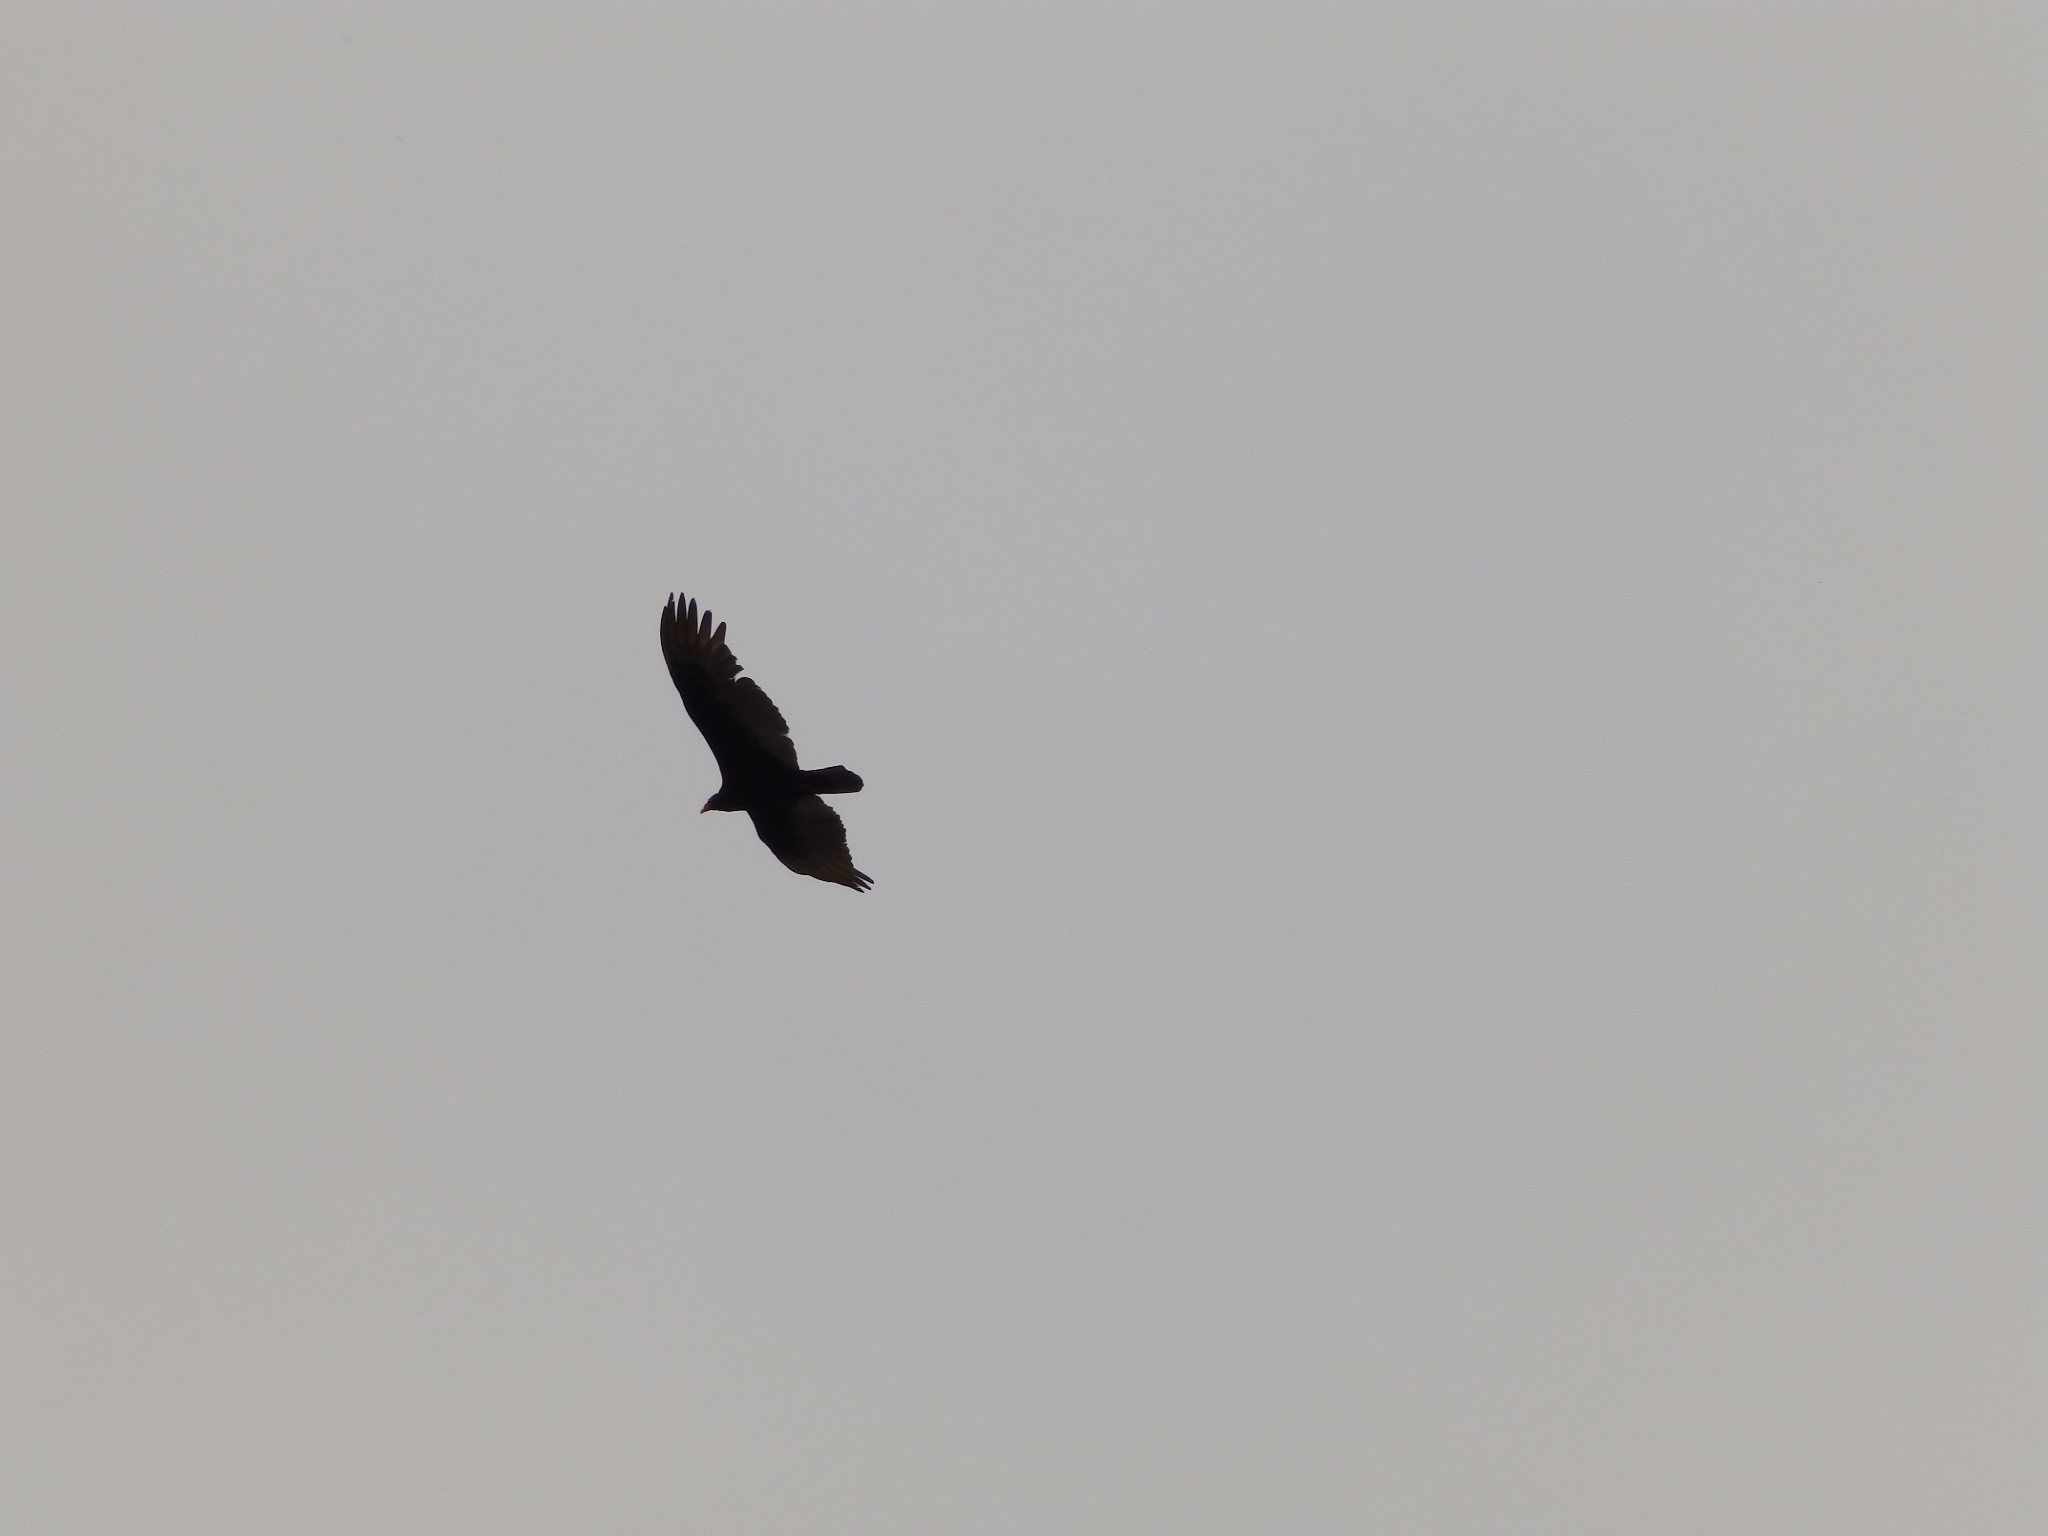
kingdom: Animalia
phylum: Chordata
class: Aves
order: Accipitriformes
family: Cathartidae
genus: Cathartes
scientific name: Cathartes aura
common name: Turkey vulture
